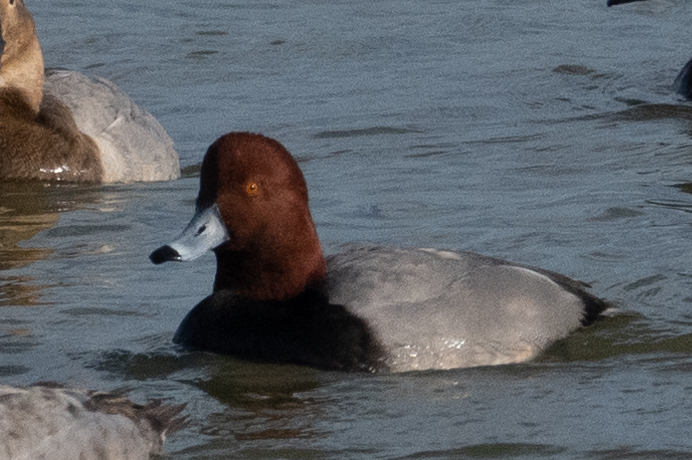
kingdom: Animalia
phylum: Chordata
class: Aves
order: Anseriformes
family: Anatidae
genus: Aythya
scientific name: Aythya americana
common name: Redhead
